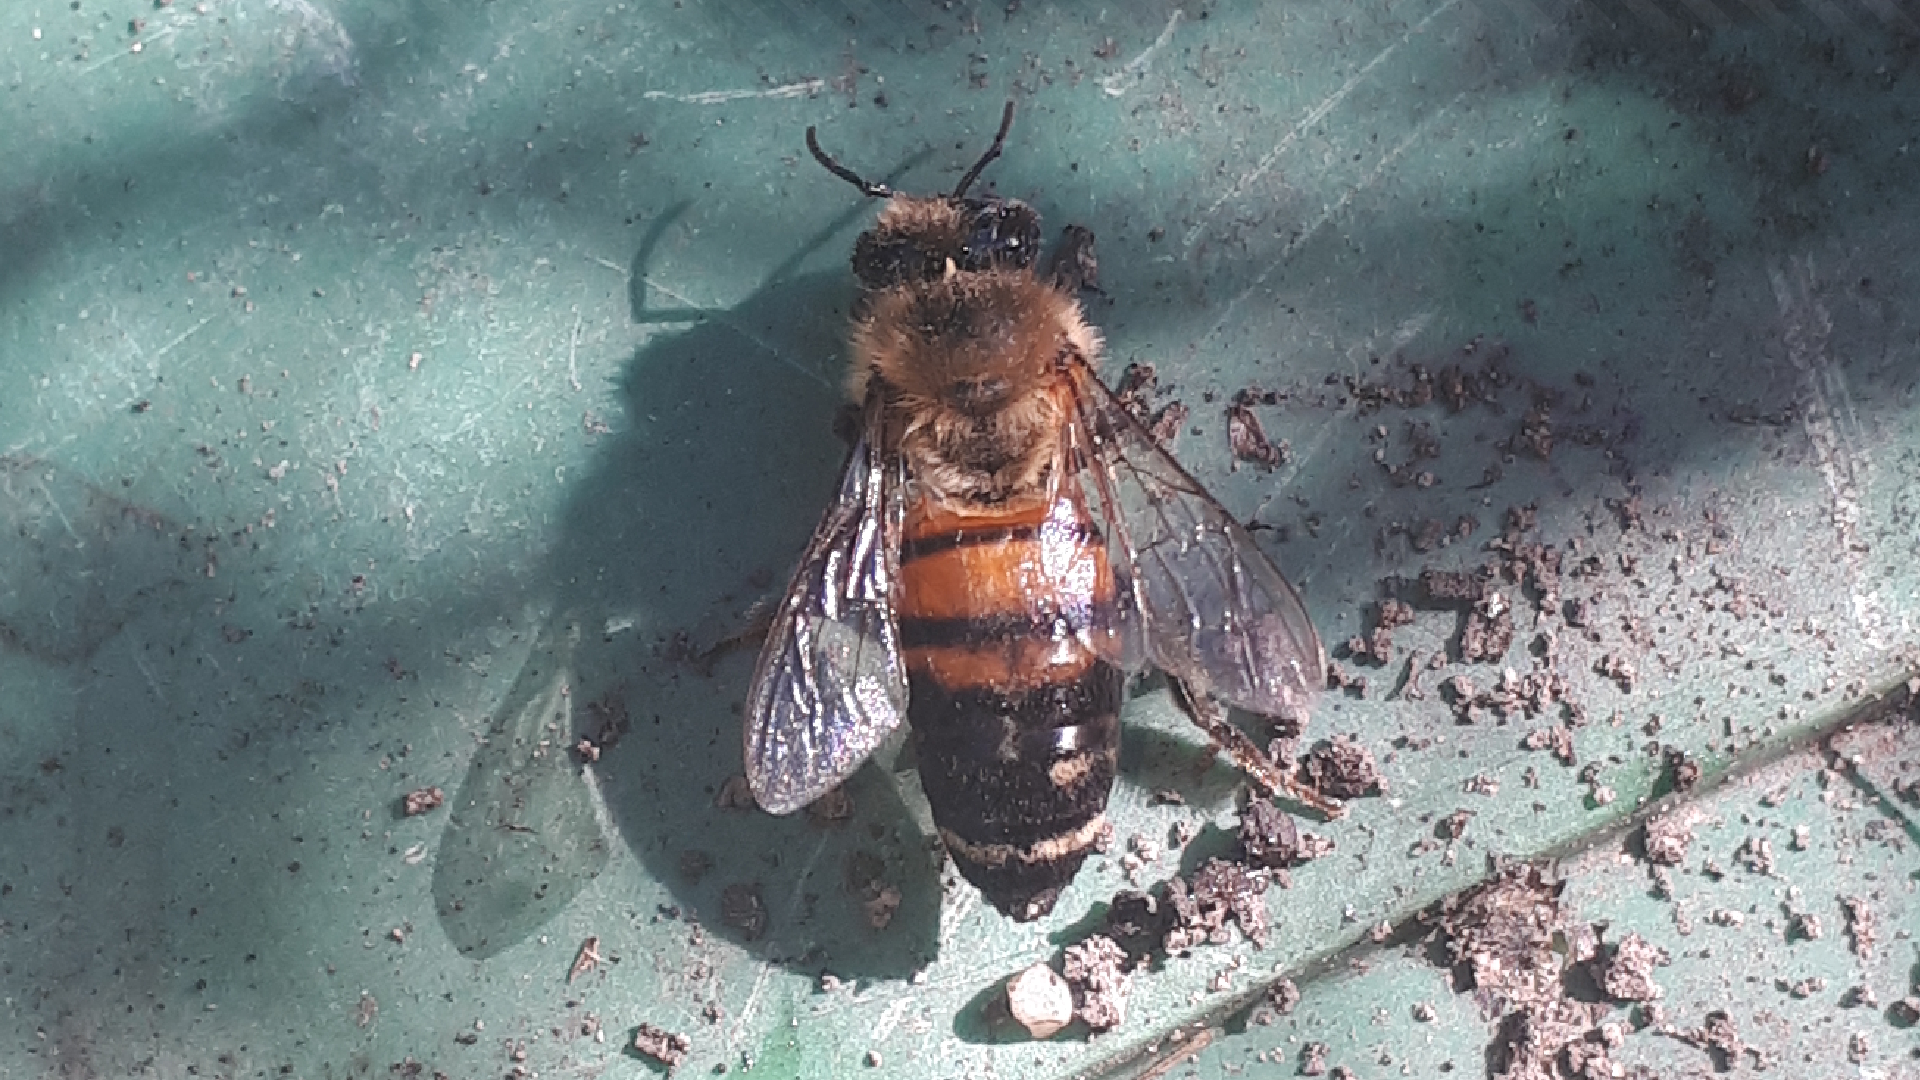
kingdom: Animalia
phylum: Arthropoda
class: Insecta
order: Hymenoptera
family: Apidae
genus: Apis
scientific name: Apis mellifera
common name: Honey bee
